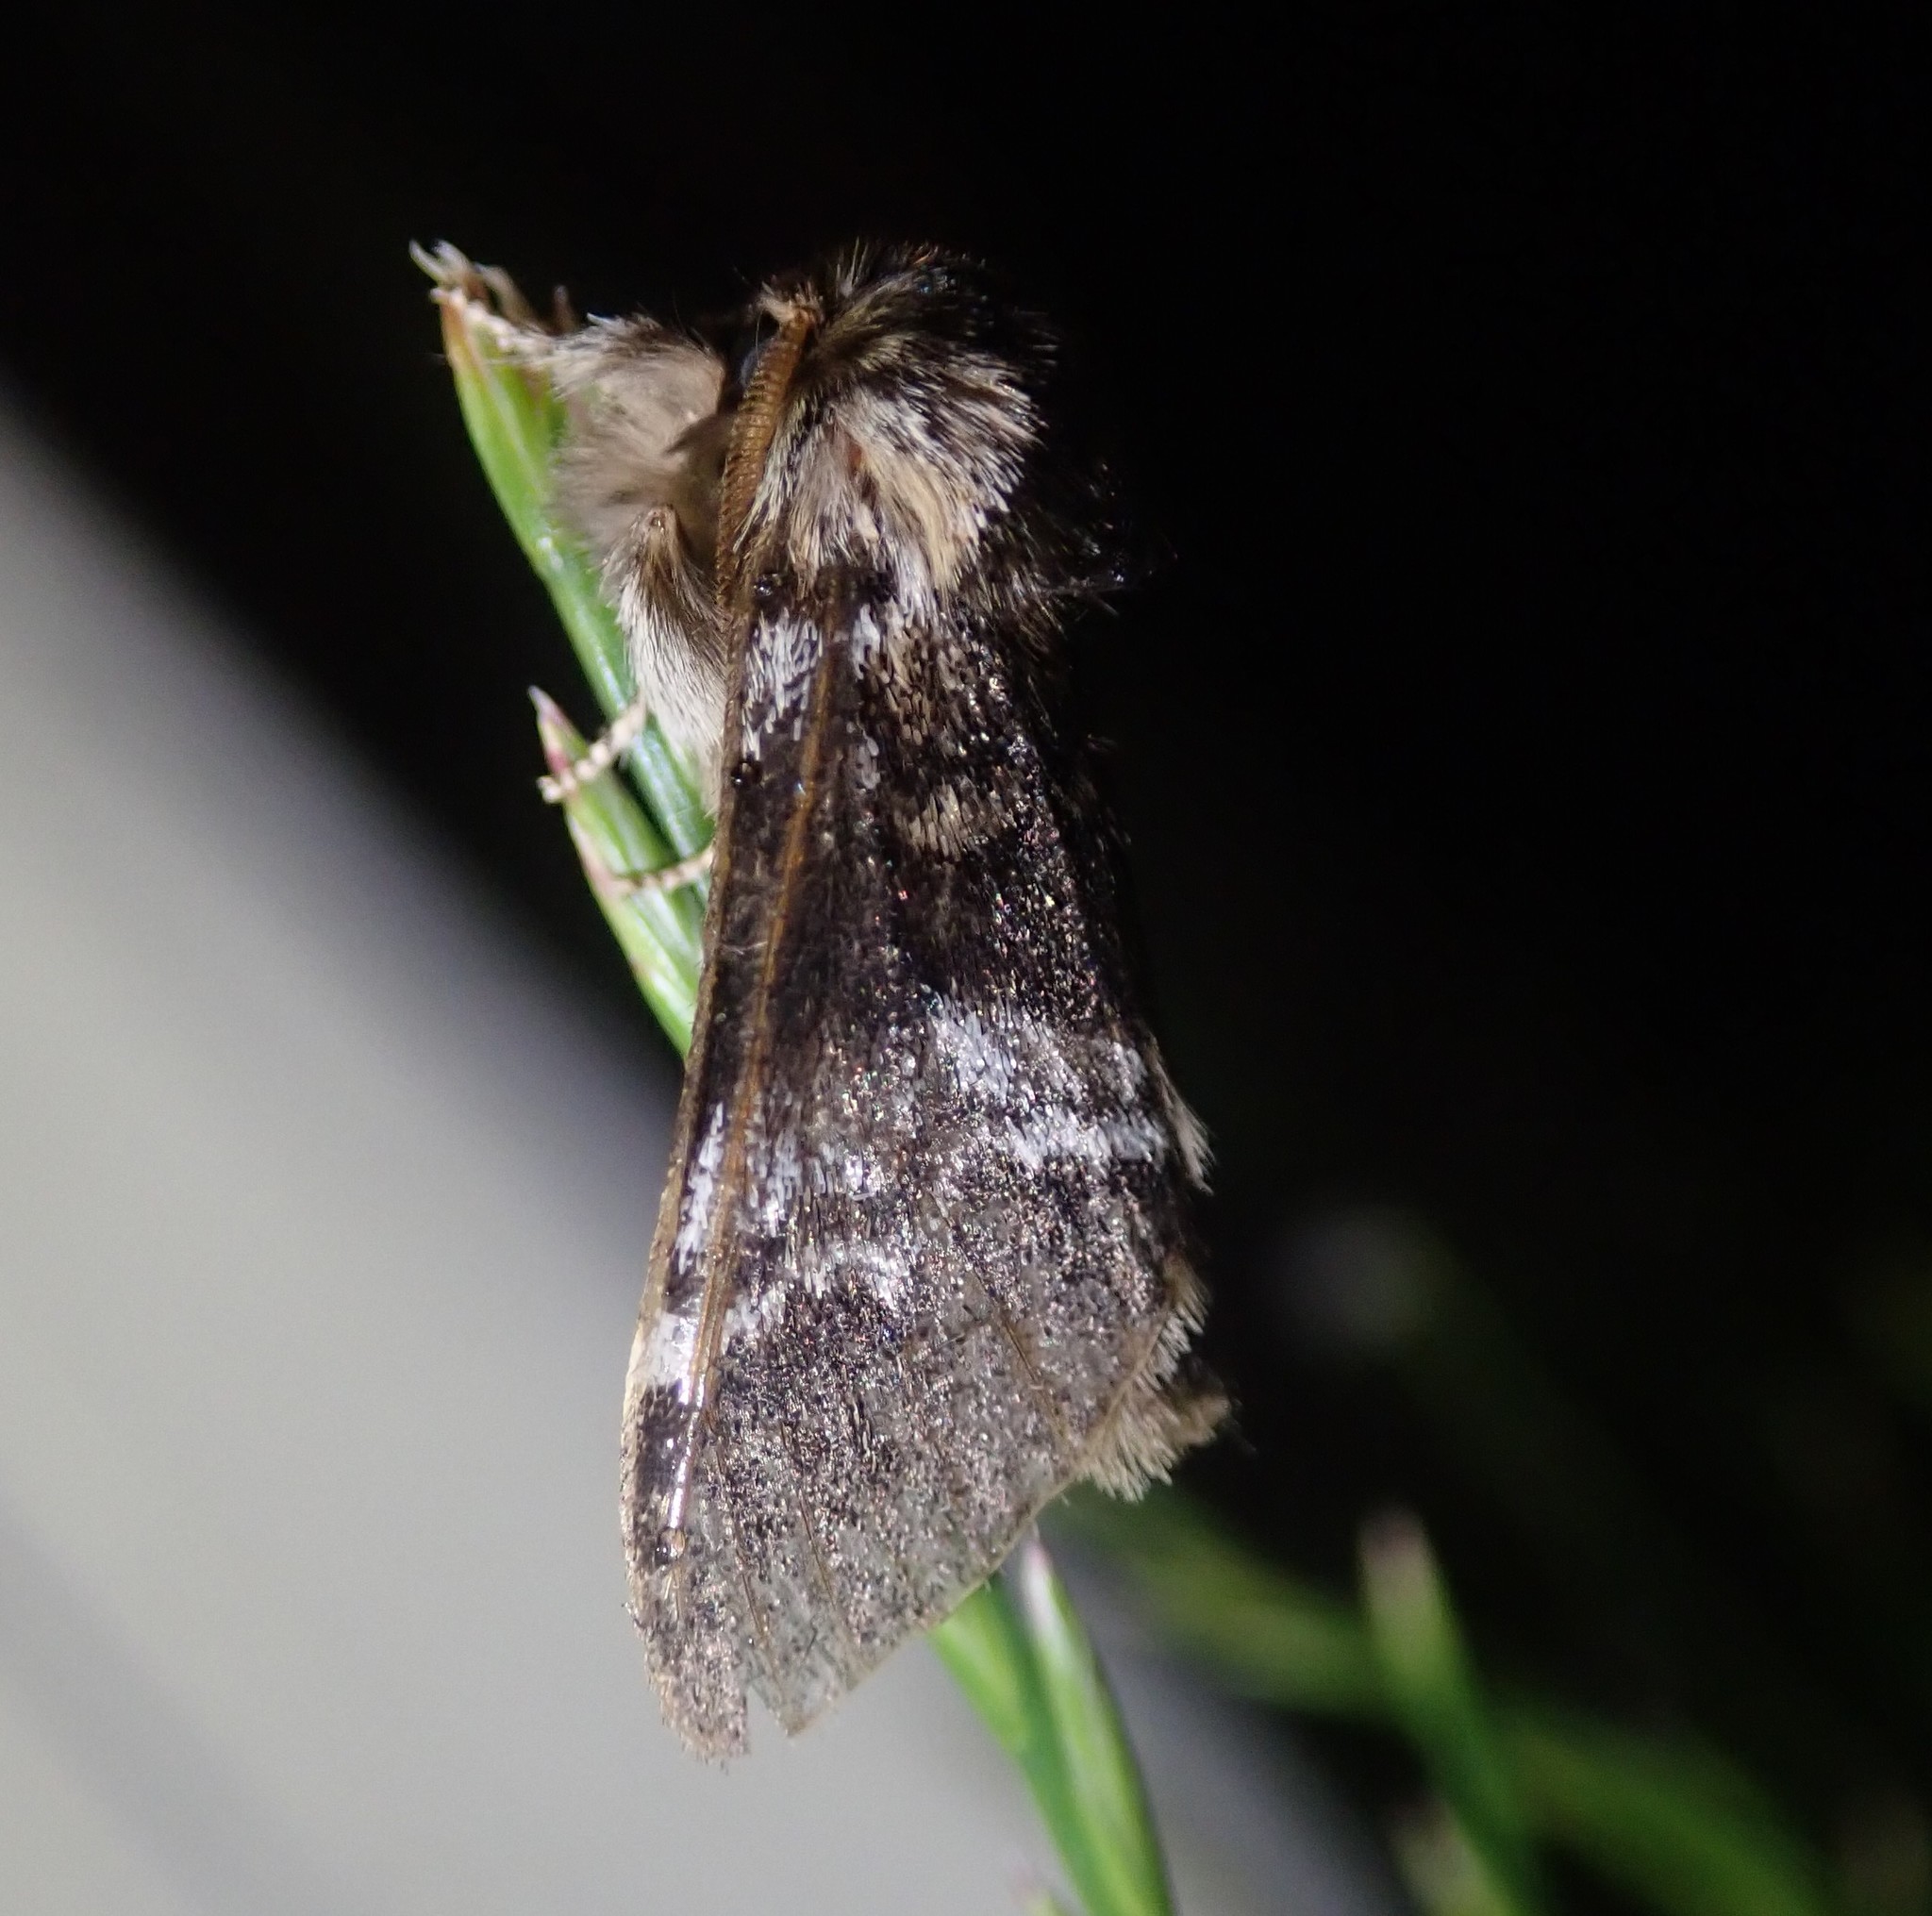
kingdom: Animalia
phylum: Arthropoda
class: Insecta
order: Lepidoptera
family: Notodontidae
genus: Drymonia
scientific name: Drymonia dodonaea
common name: Marbled brown
